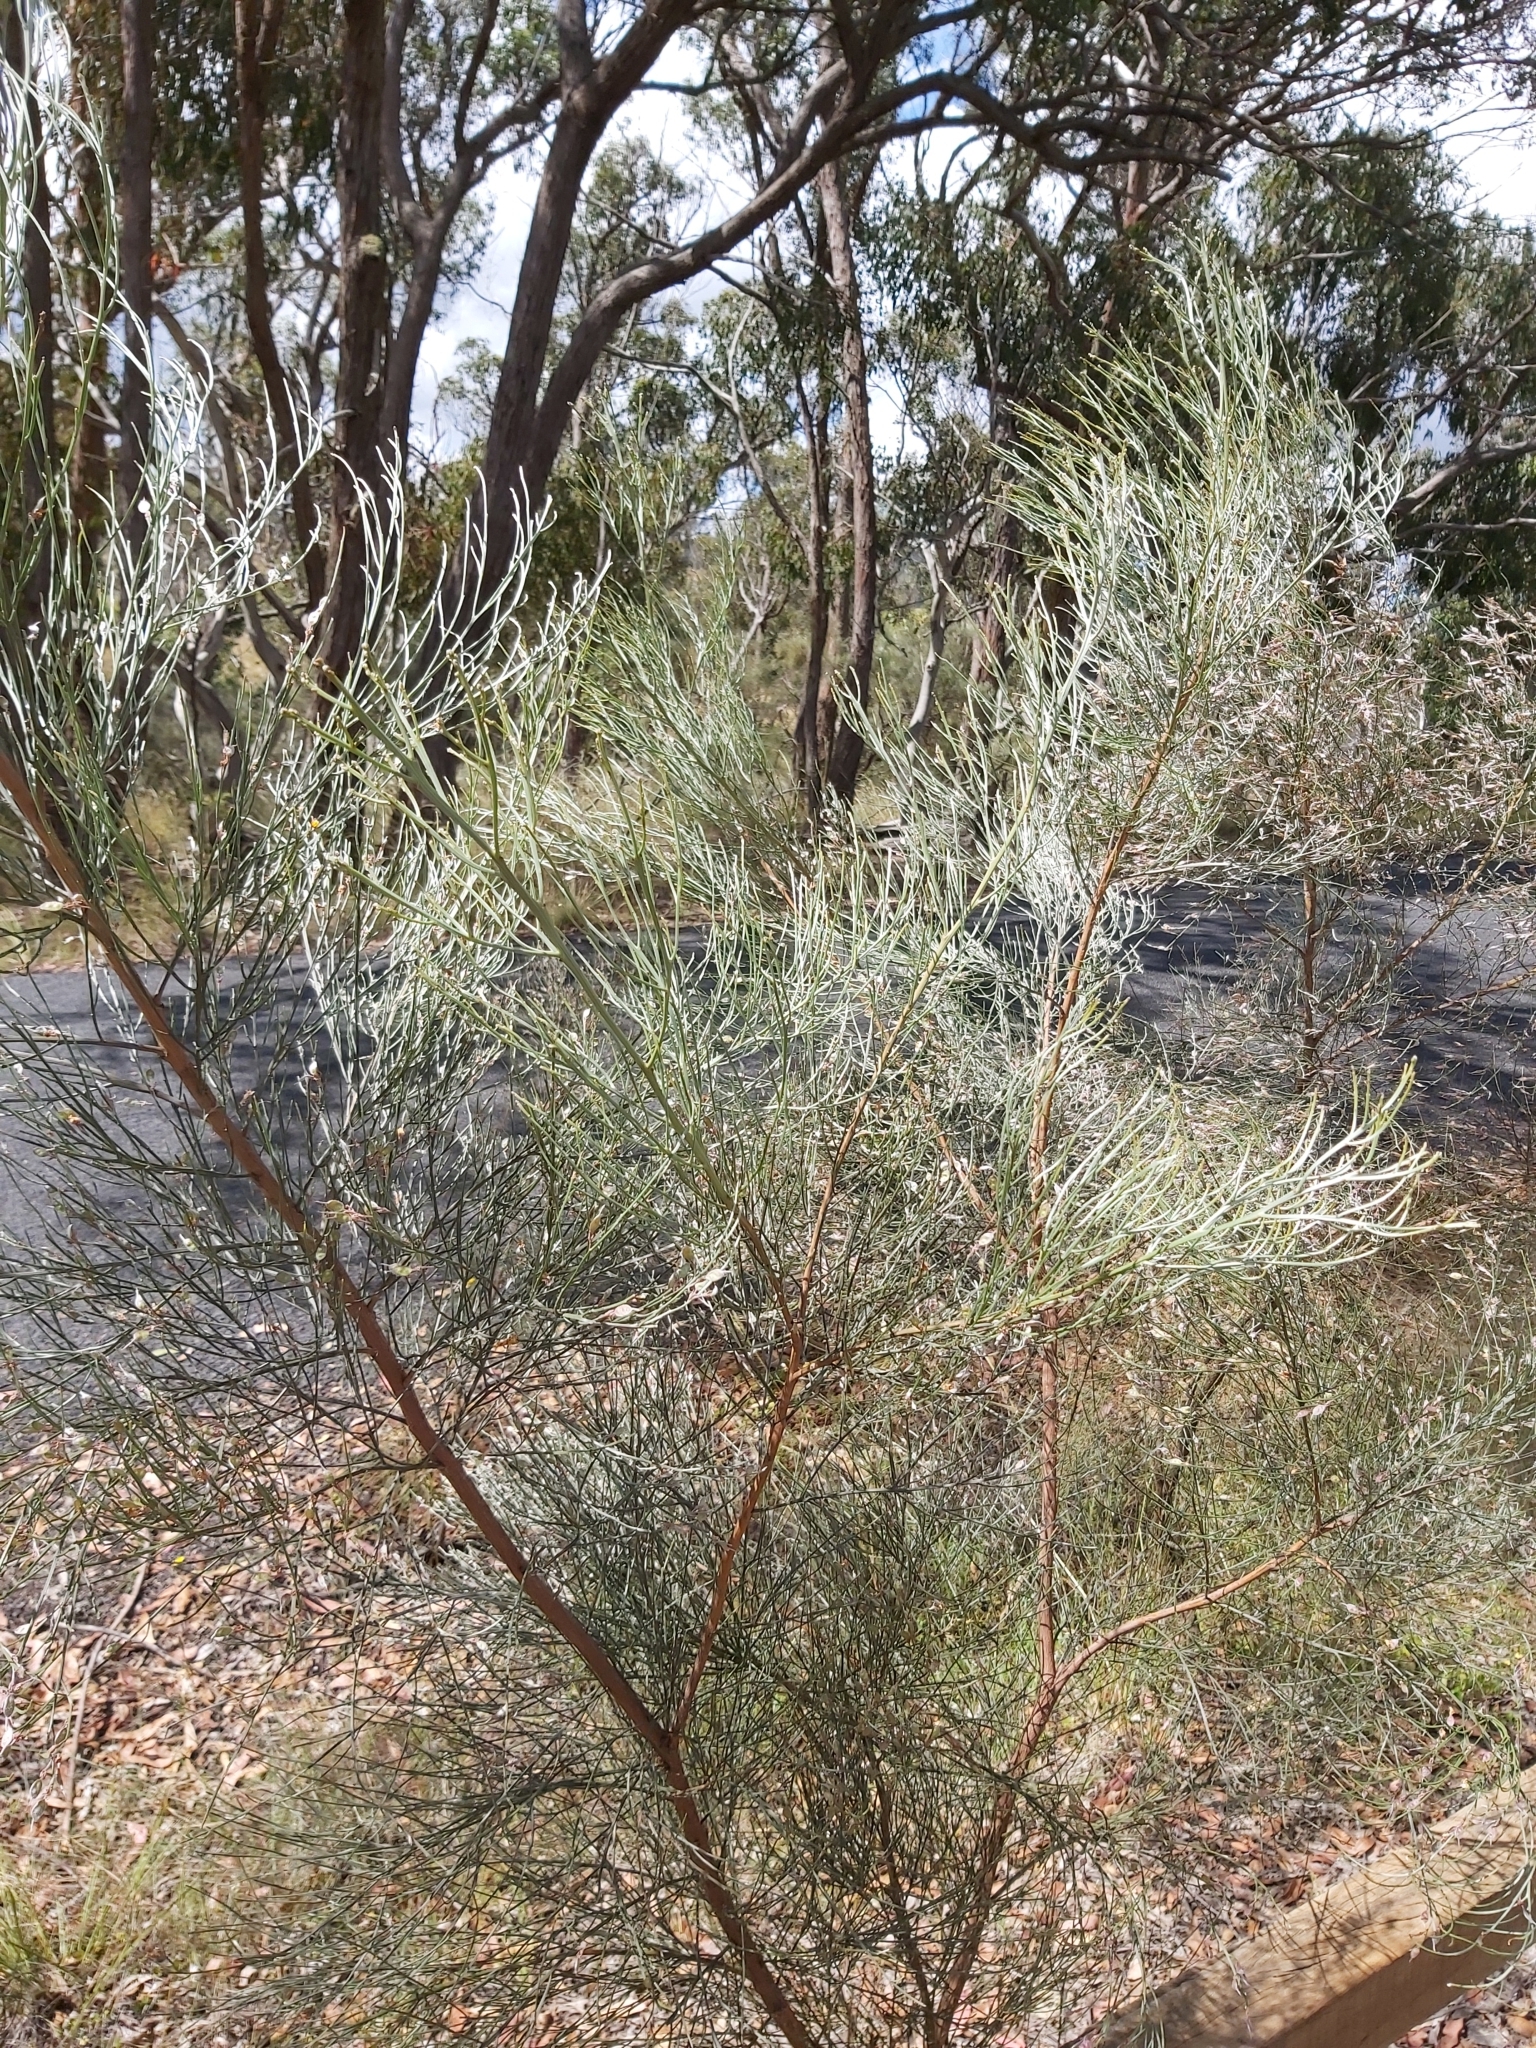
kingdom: Plantae
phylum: Tracheophyta
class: Magnoliopsida
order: Fabales
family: Fabaceae
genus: Jacksonia
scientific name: Jacksonia scoparia
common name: Dogwood
